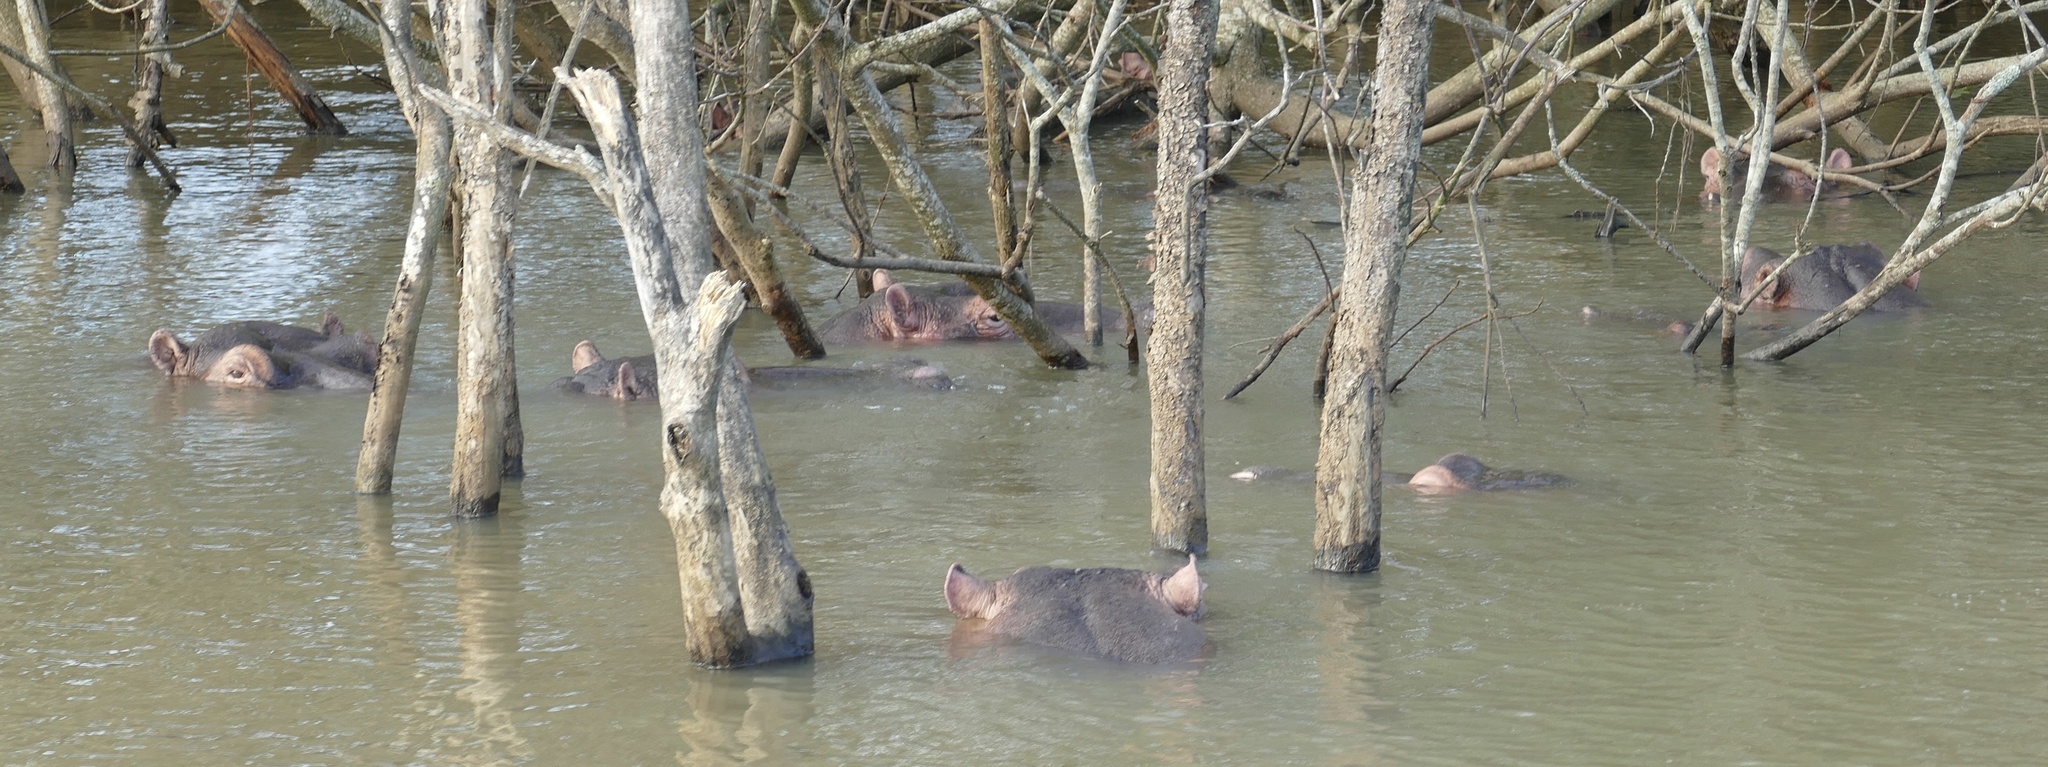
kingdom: Animalia
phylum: Chordata
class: Mammalia
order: Artiodactyla
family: Hippopotamidae
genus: Hippopotamus
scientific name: Hippopotamus amphibius
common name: Common hippopotamus
